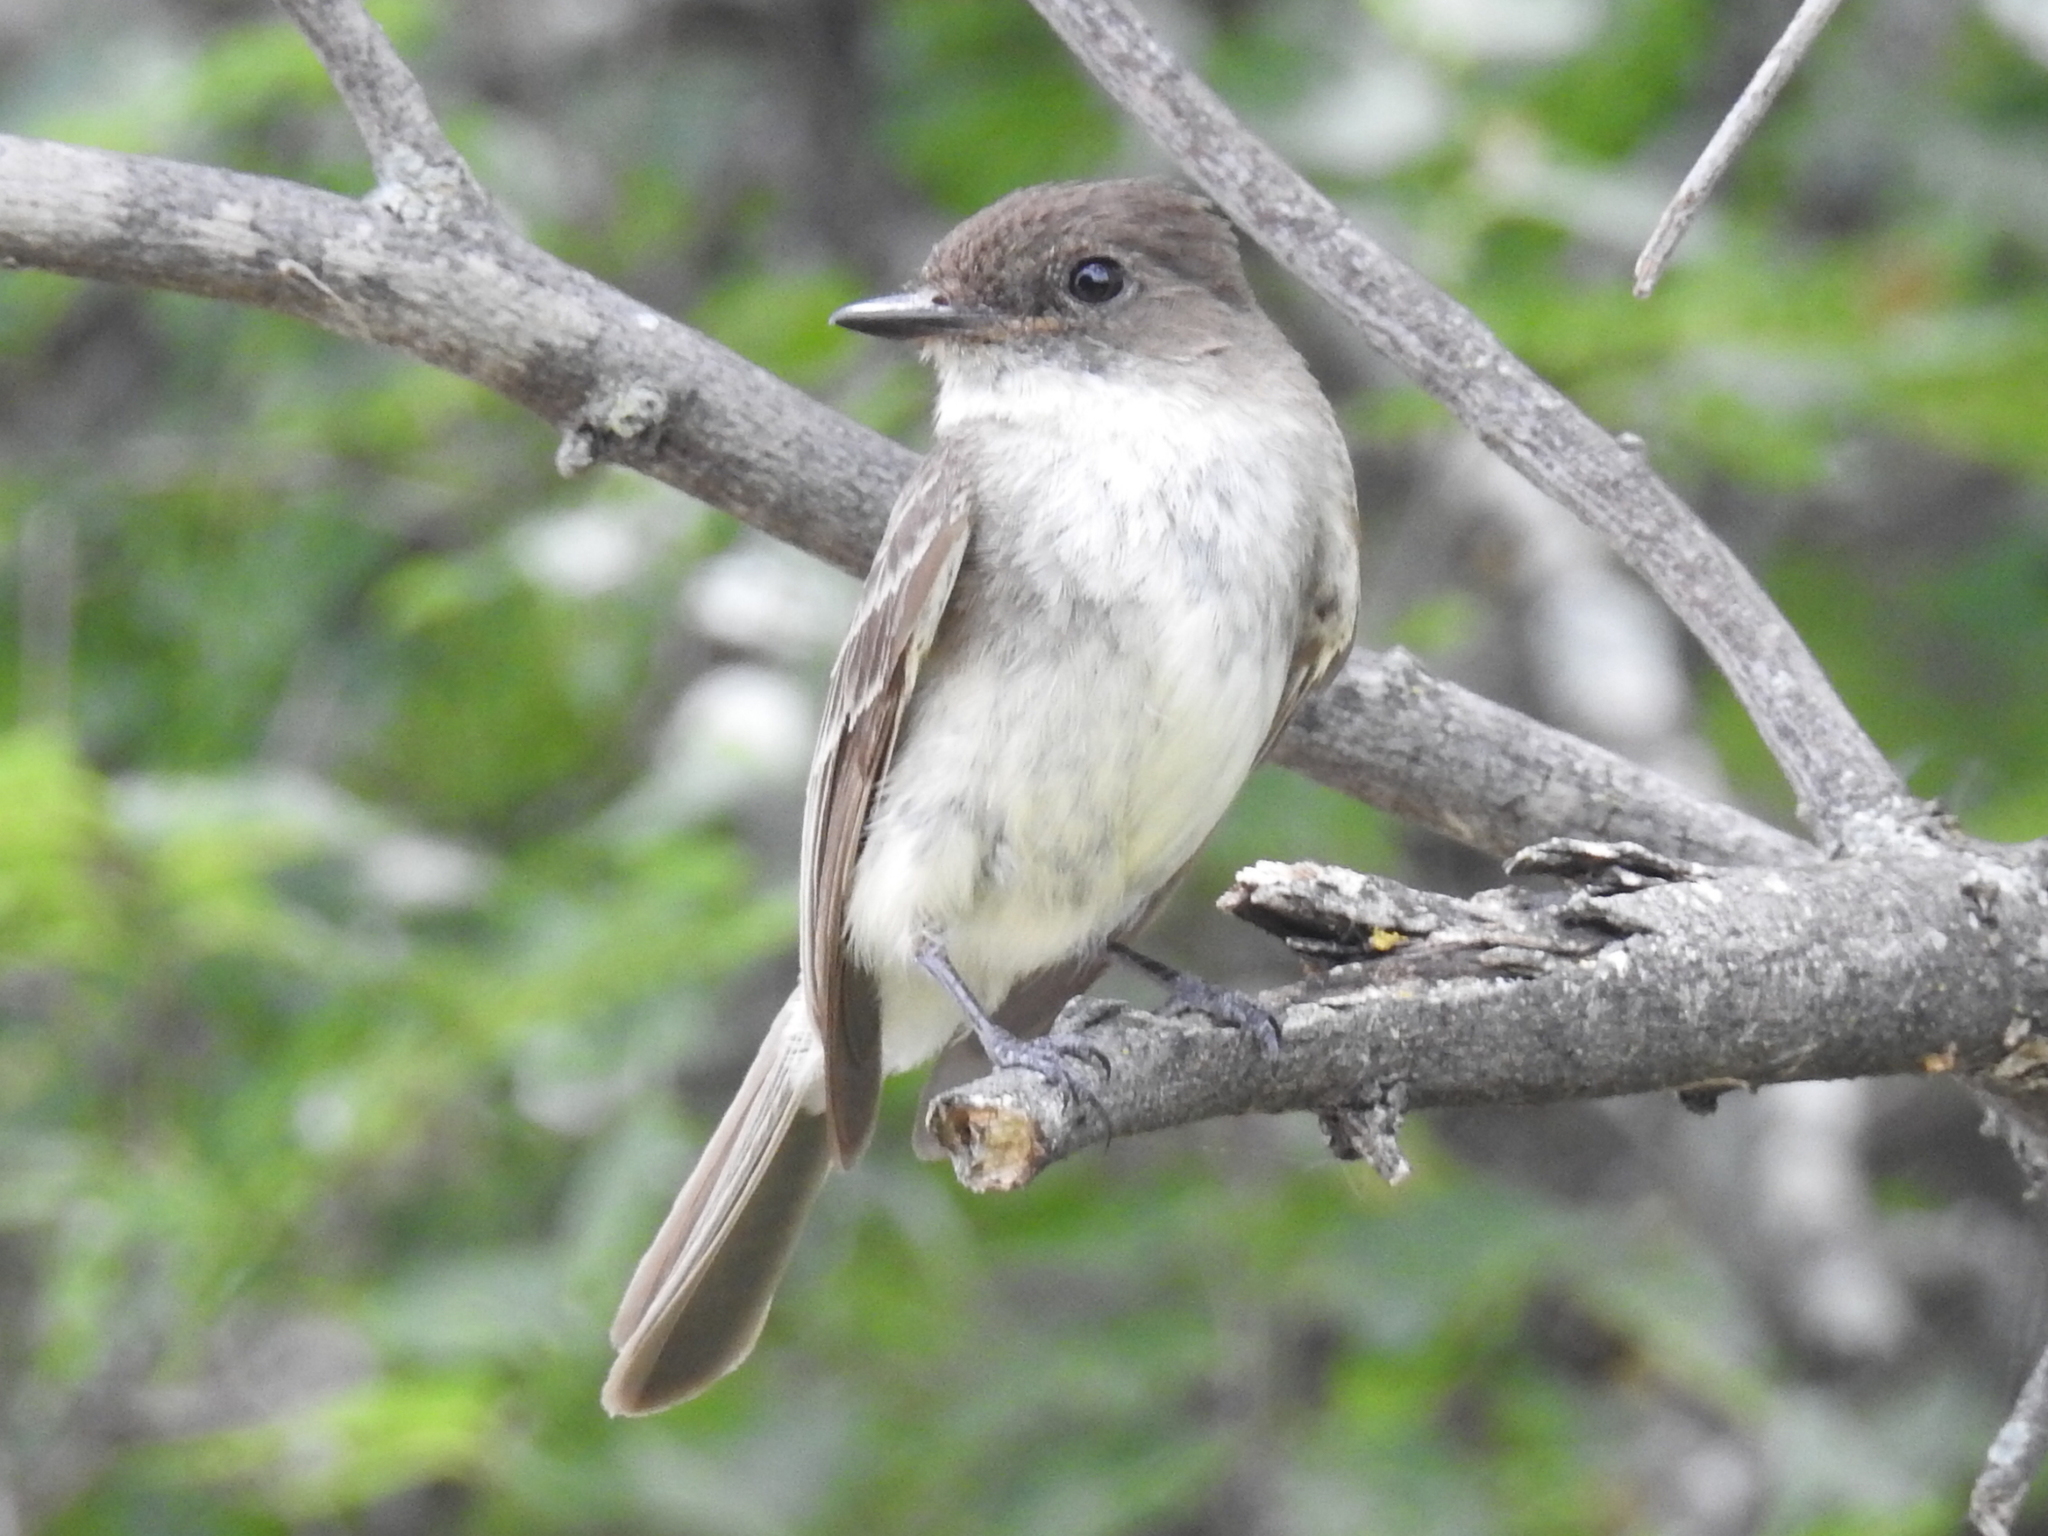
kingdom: Animalia
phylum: Chordata
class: Aves
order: Passeriformes
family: Tyrannidae
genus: Sayornis
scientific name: Sayornis phoebe
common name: Eastern phoebe
